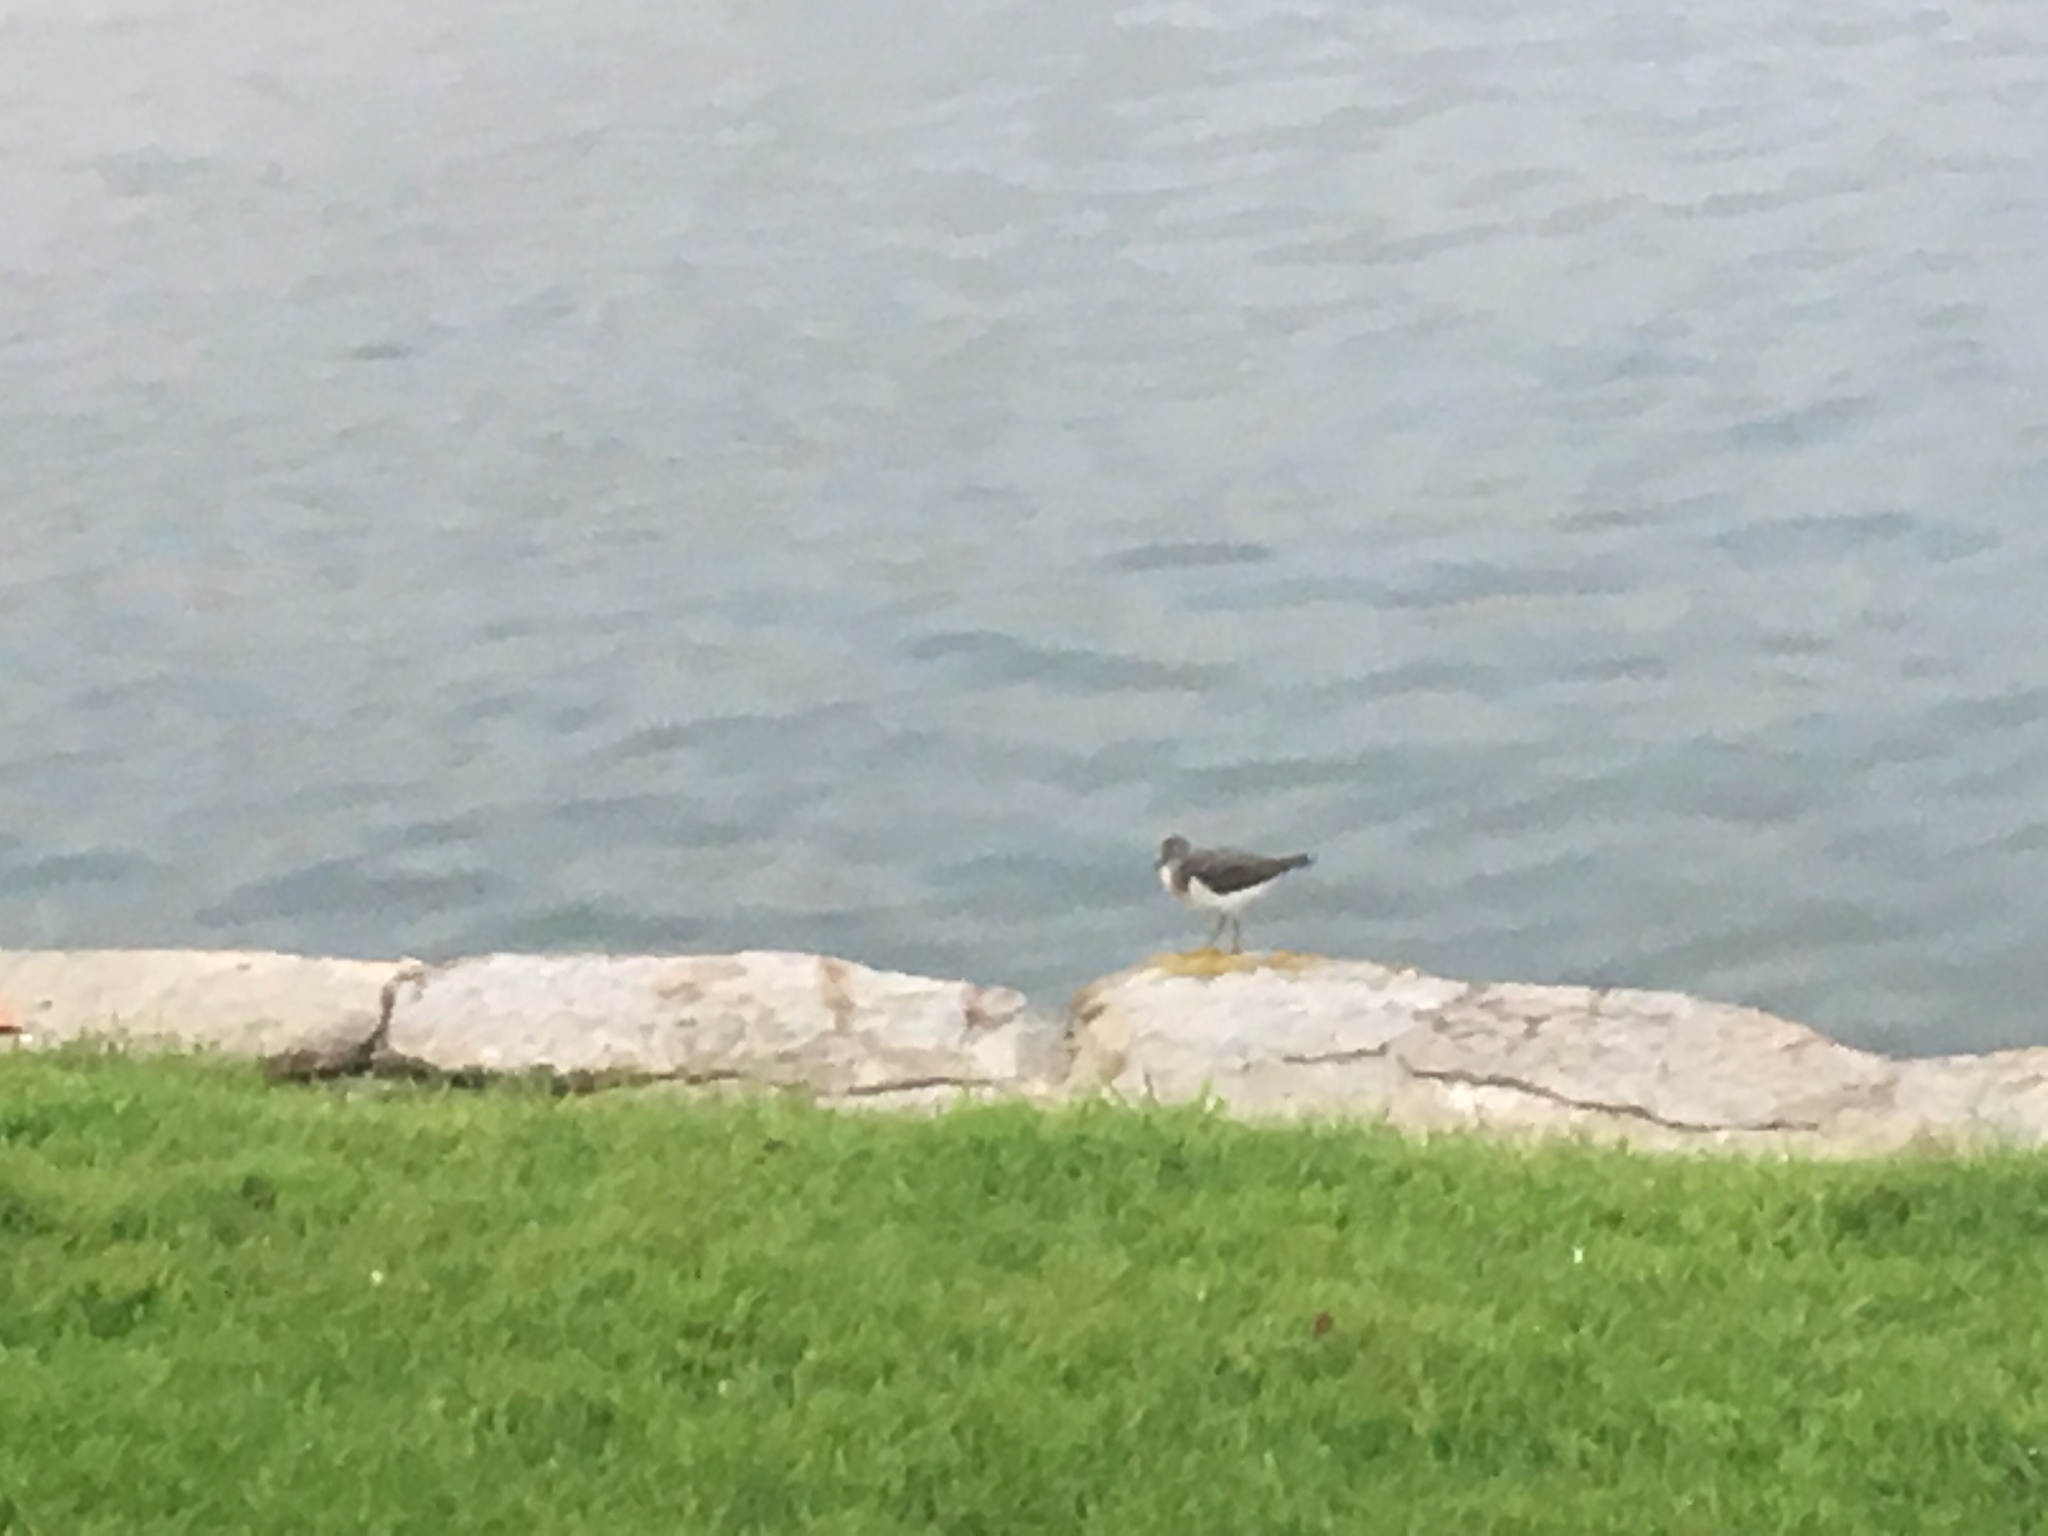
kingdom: Animalia
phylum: Chordata
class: Aves
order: Charadriiformes
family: Scolopacidae
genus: Actitis
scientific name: Actitis macularius
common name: Spotted sandpiper
